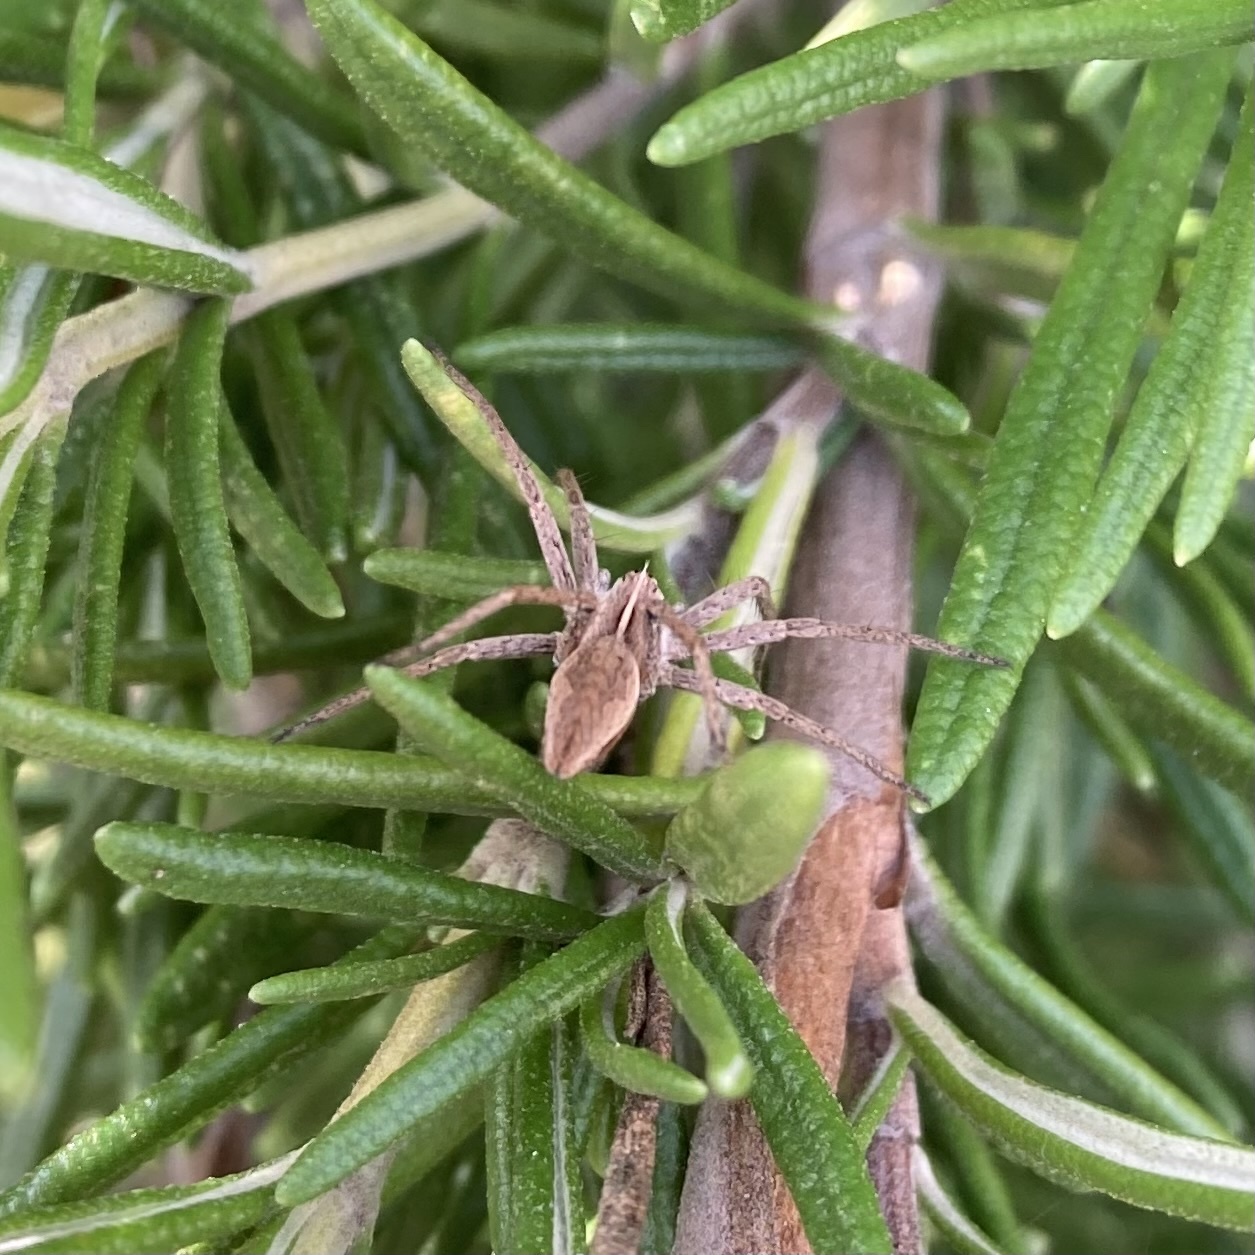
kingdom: Animalia
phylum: Arthropoda
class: Arachnida
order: Araneae
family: Pisauridae
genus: Pisaura
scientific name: Pisaura mirabilis
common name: Tent spider
